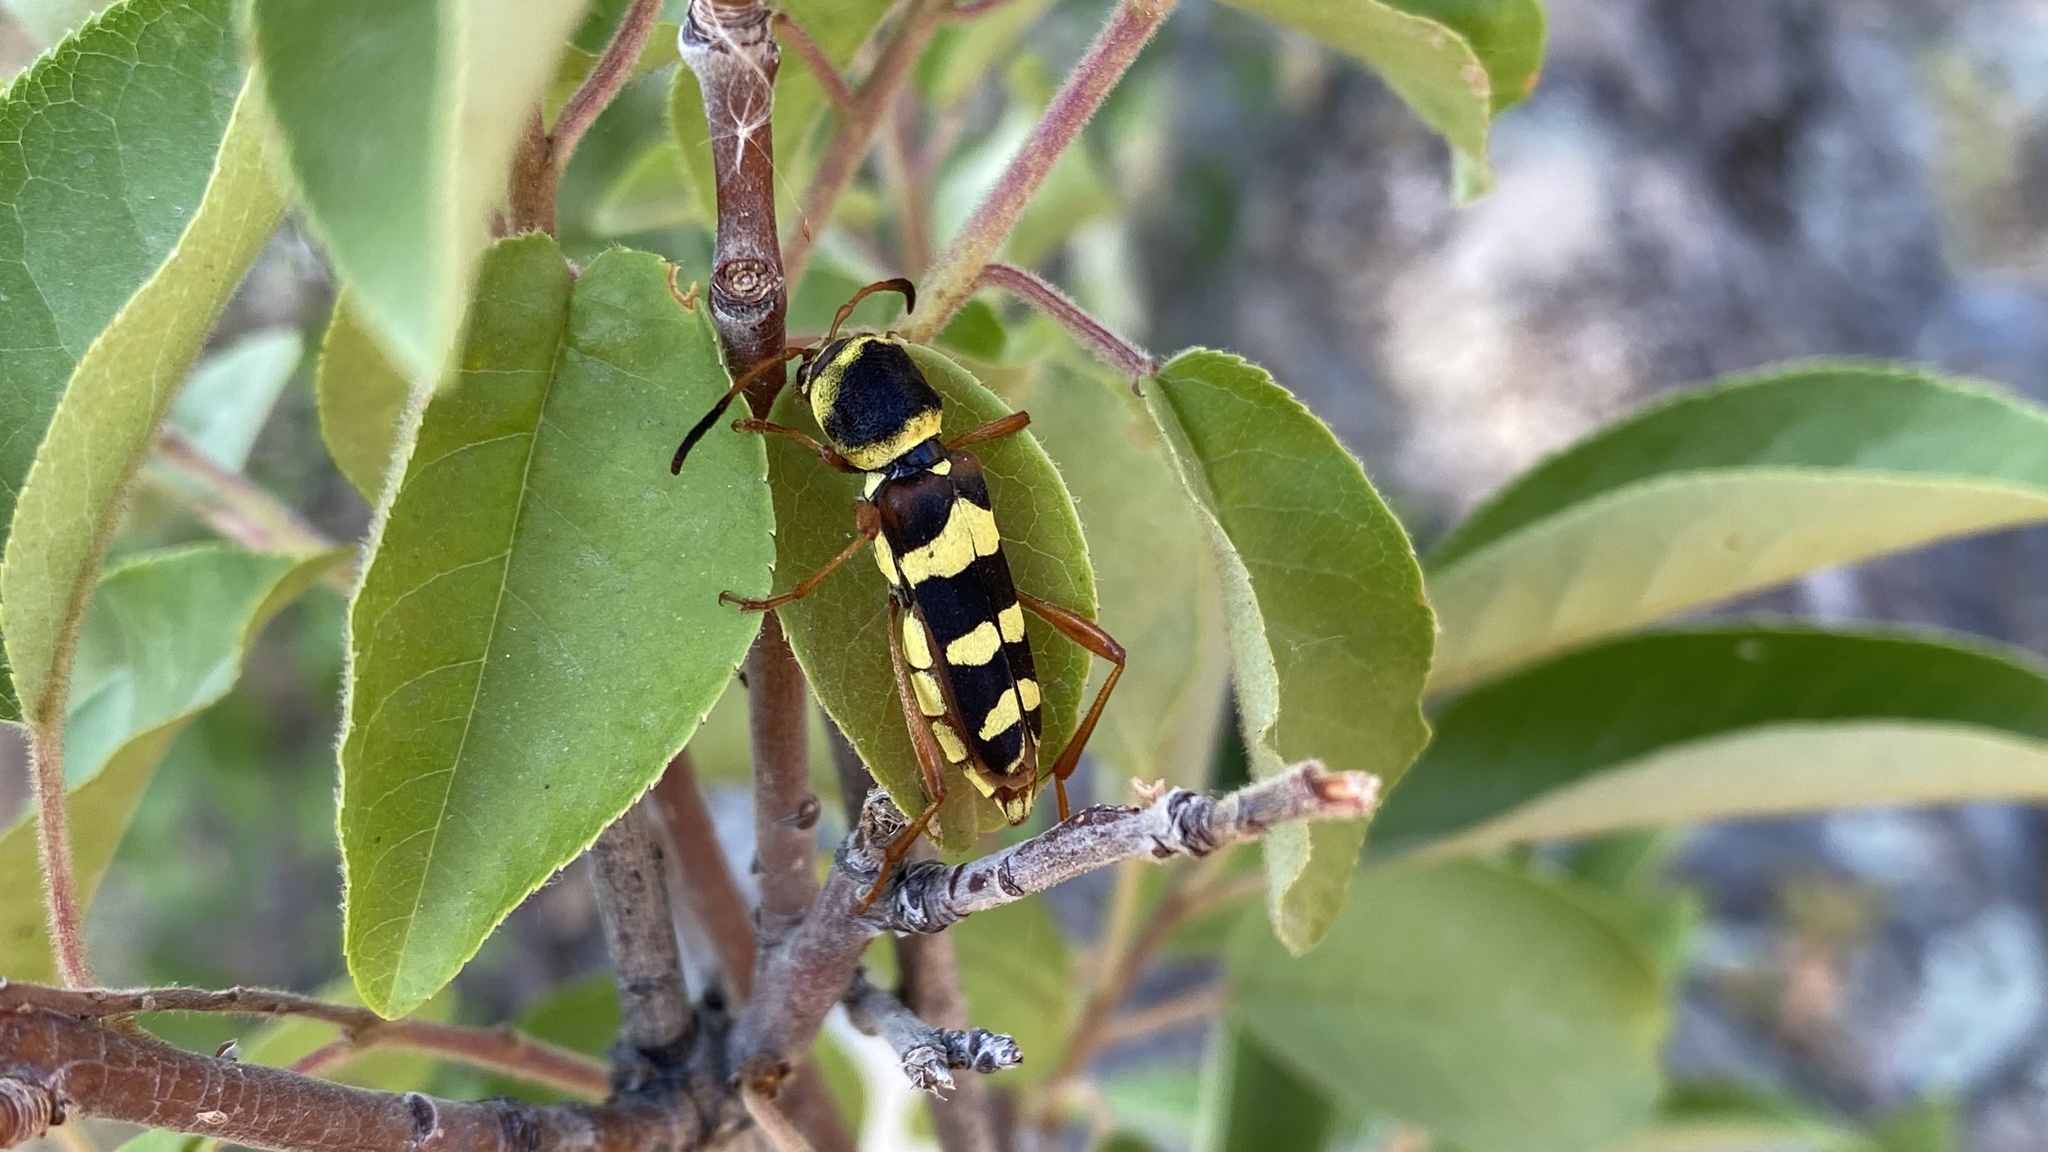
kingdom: Animalia
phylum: Arthropoda
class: Insecta
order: Coleoptera
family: Cerambycidae
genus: Neoclytus
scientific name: Neoclytus resplendens
